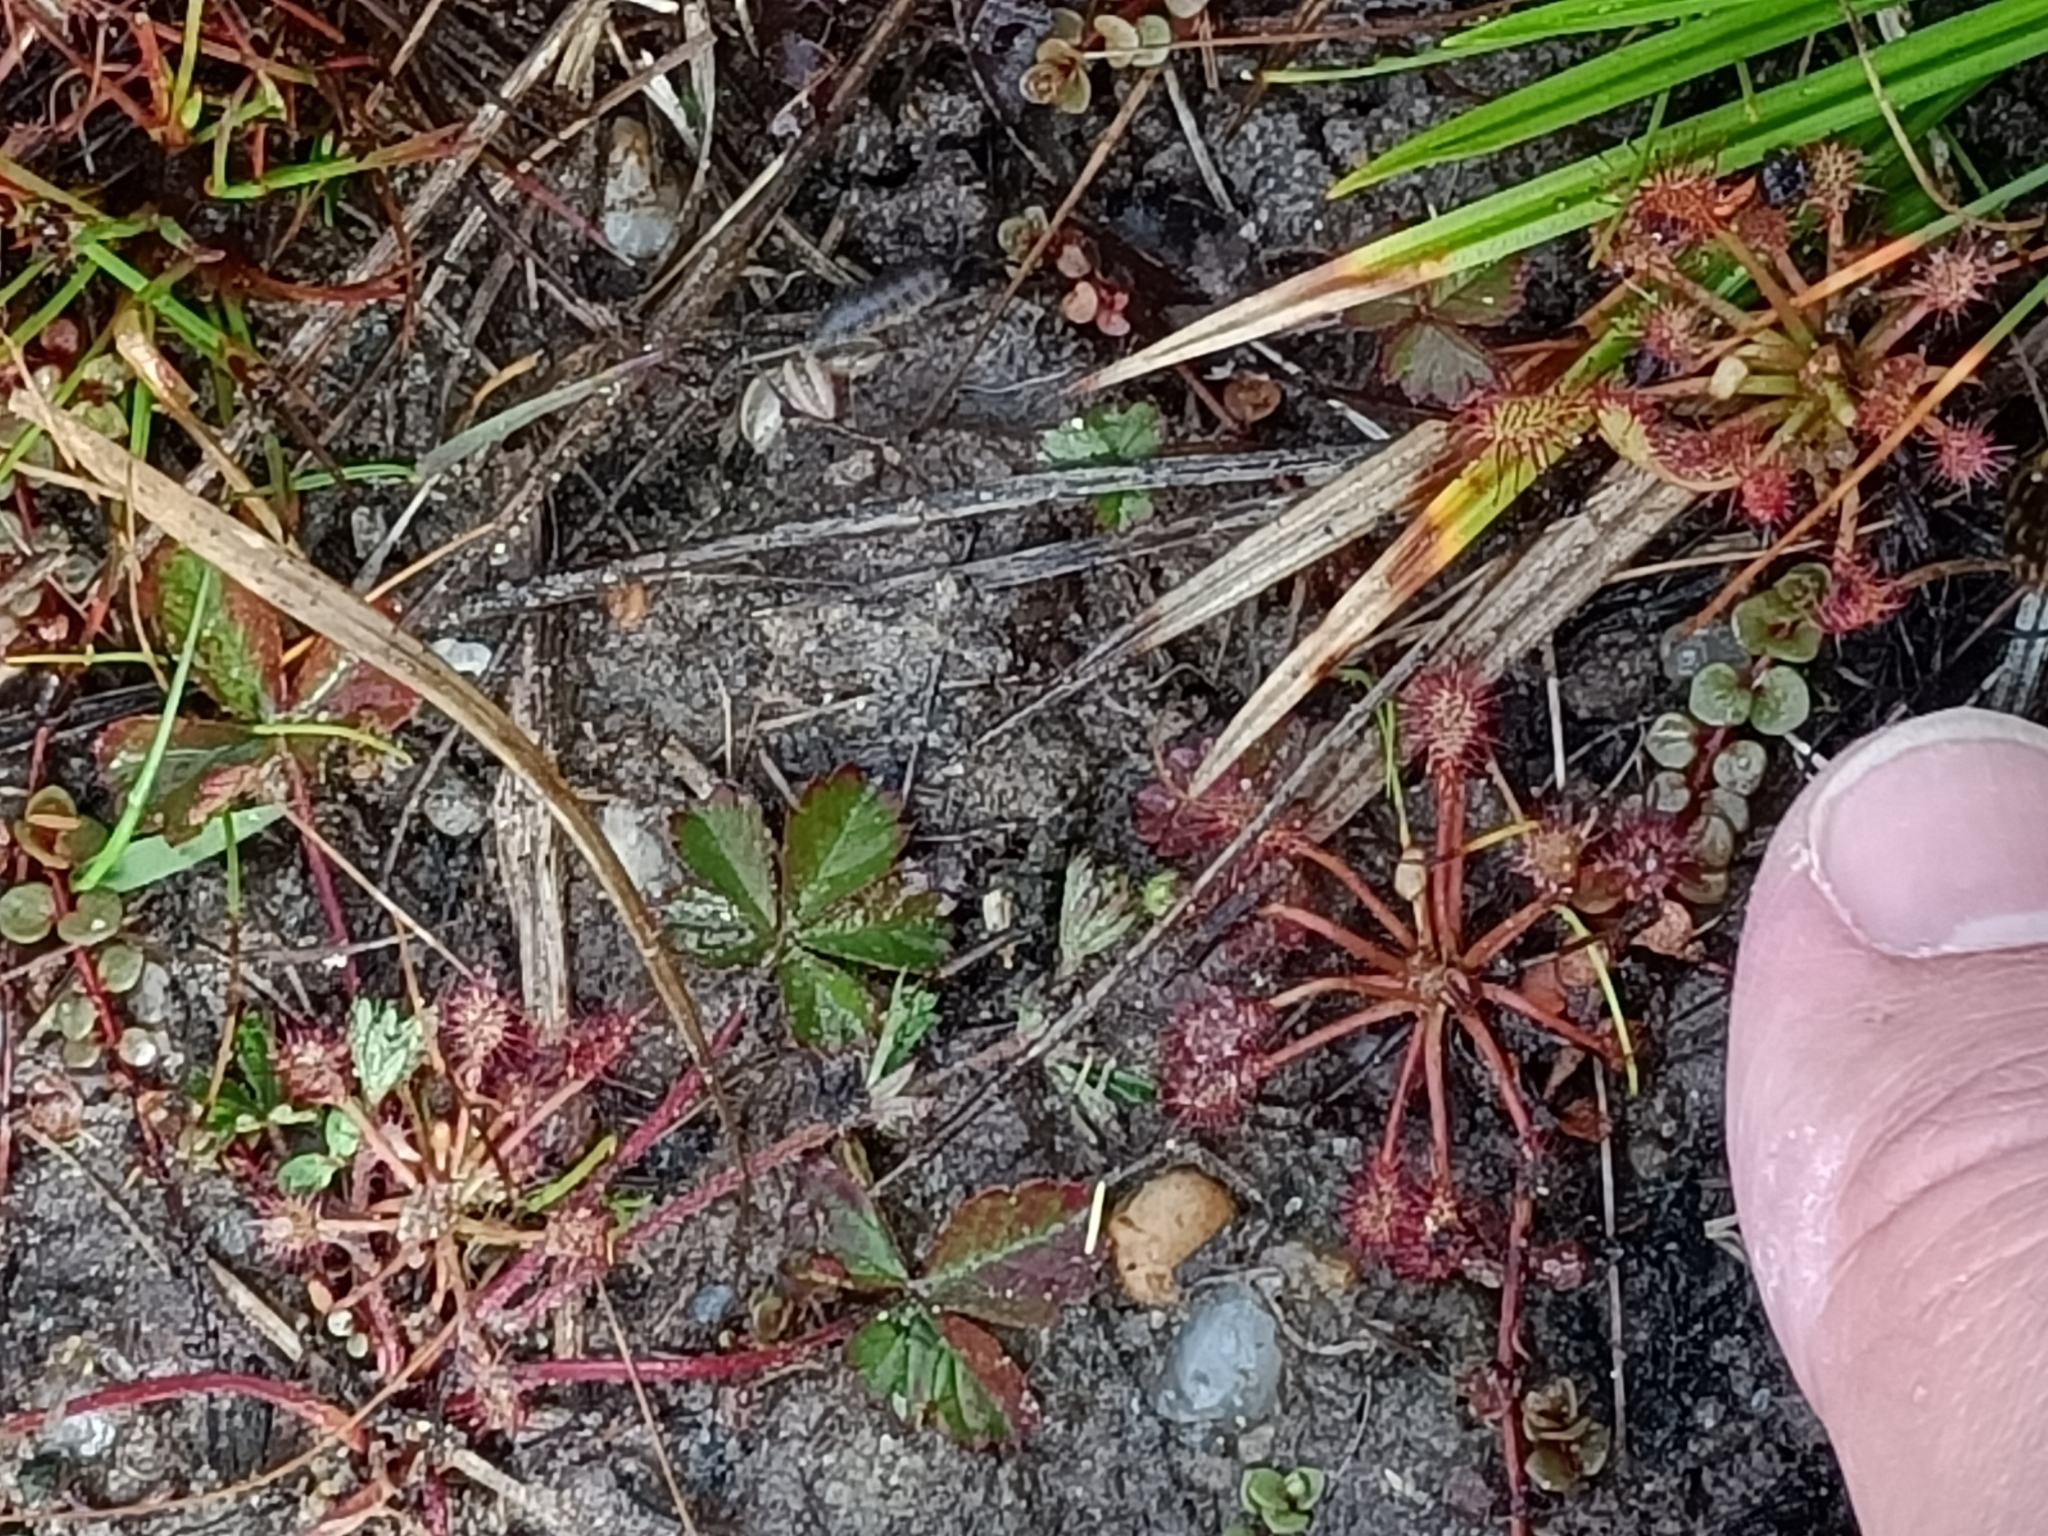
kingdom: Plantae
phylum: Tracheophyta
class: Magnoliopsida
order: Caryophyllales
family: Droseraceae
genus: Drosera
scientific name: Drosera intermedia
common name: Oblong-leaved sundew
